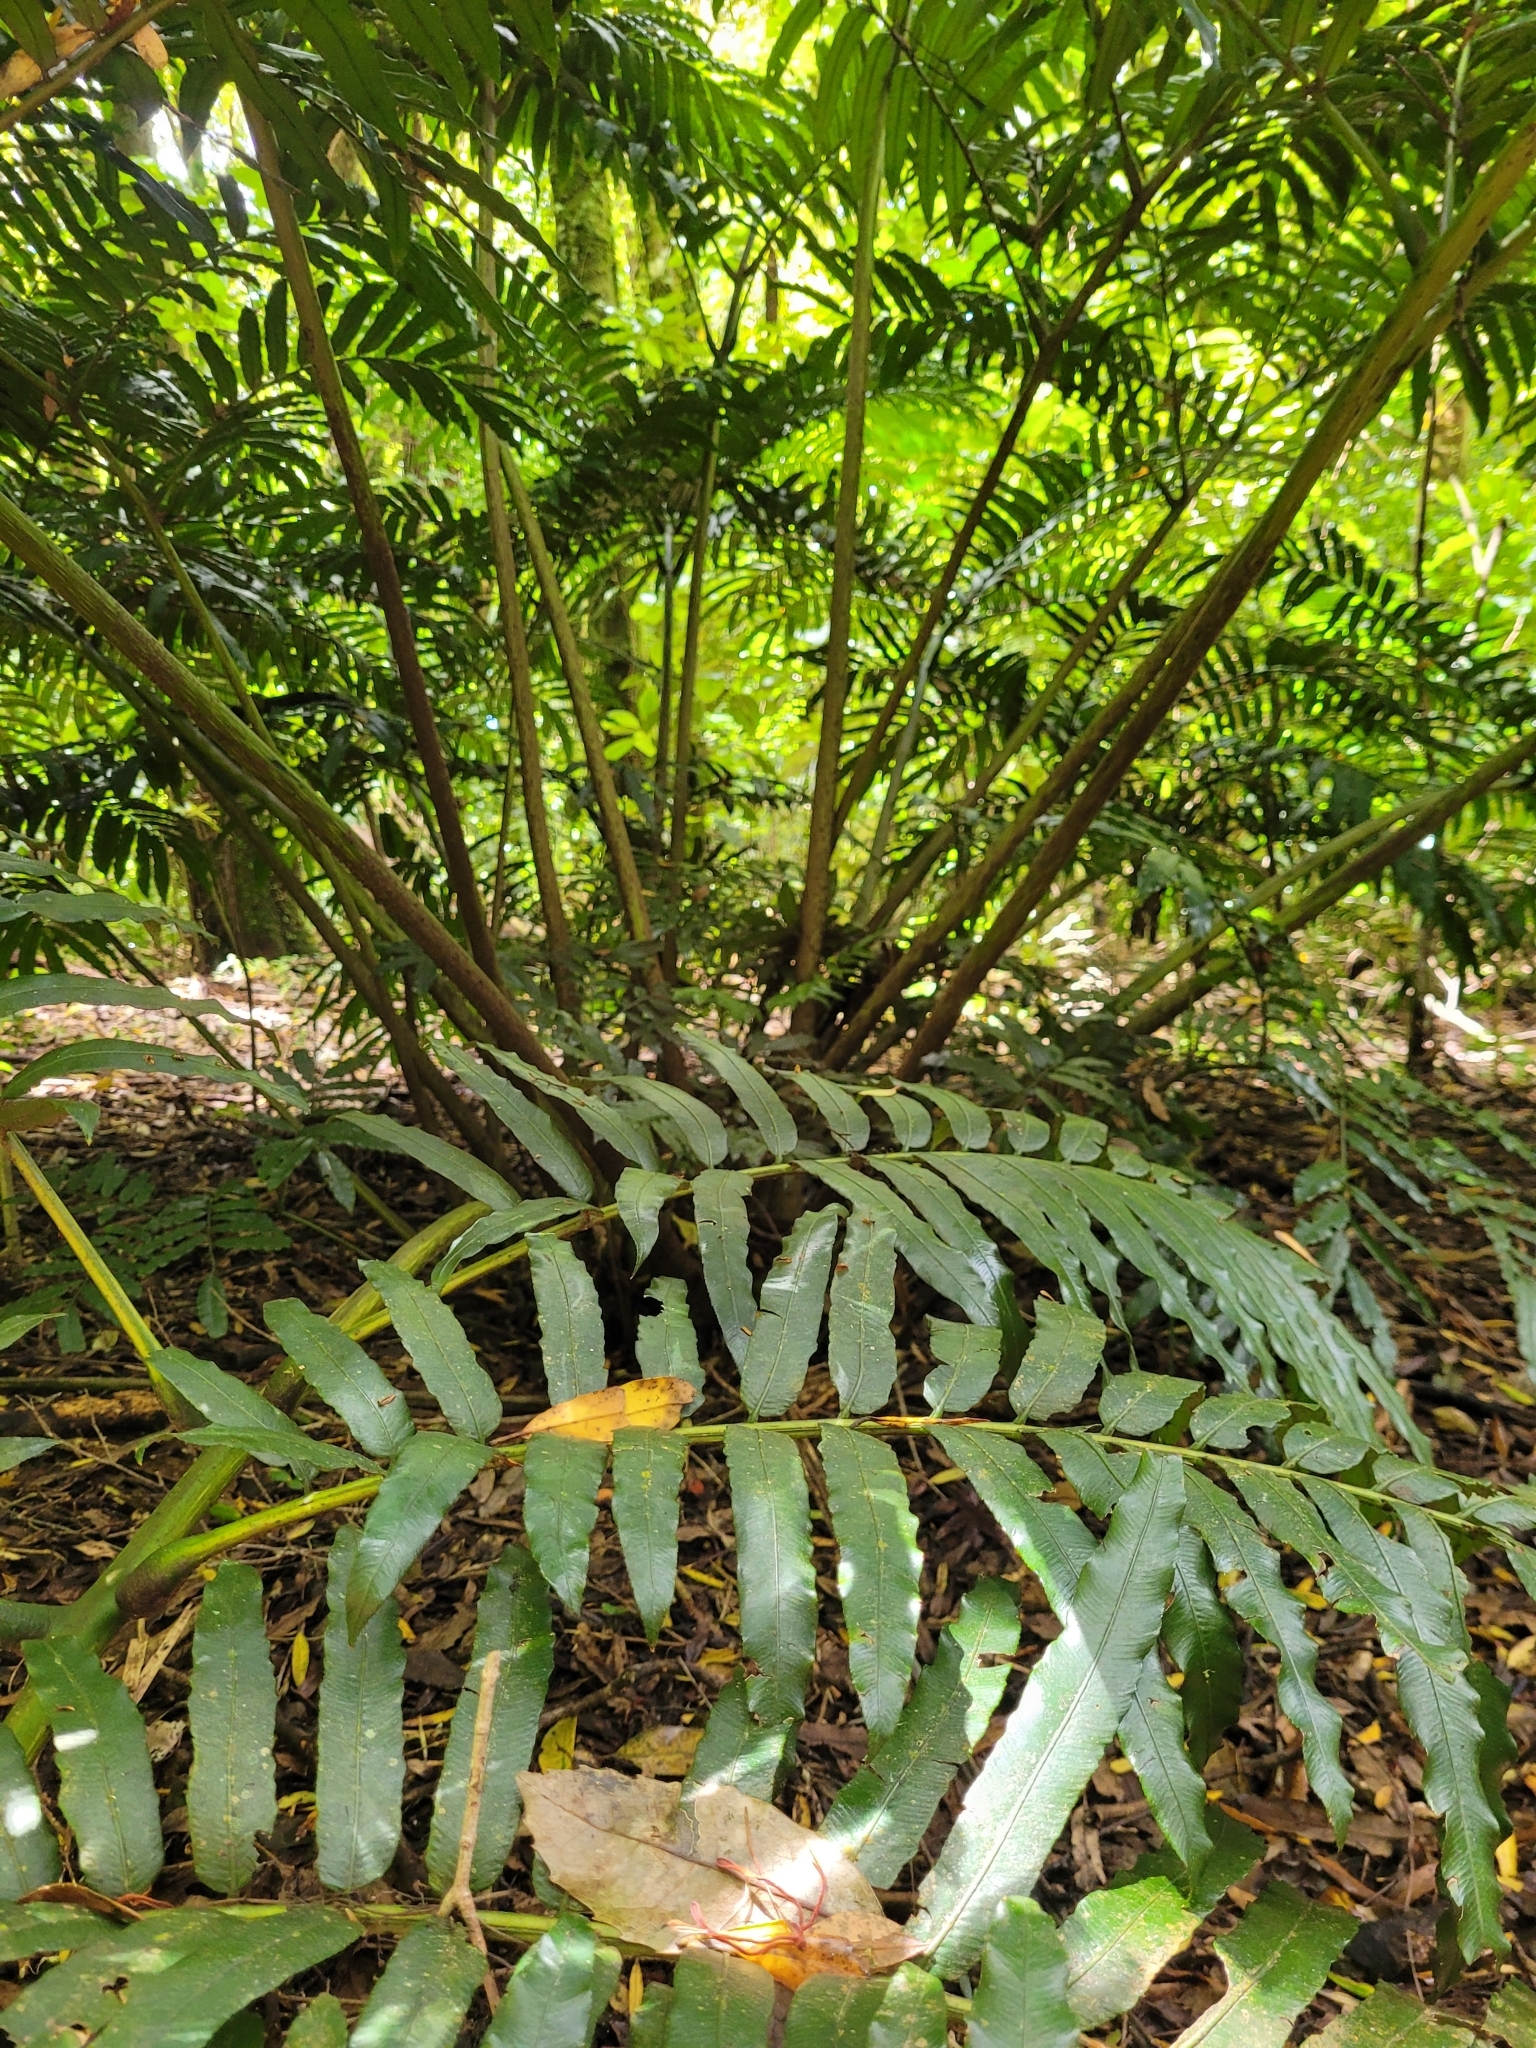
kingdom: Plantae
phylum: Tracheophyta
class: Polypodiopsida
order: Marattiales
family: Marattiaceae
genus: Ptisana
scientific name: Ptisana salicina
